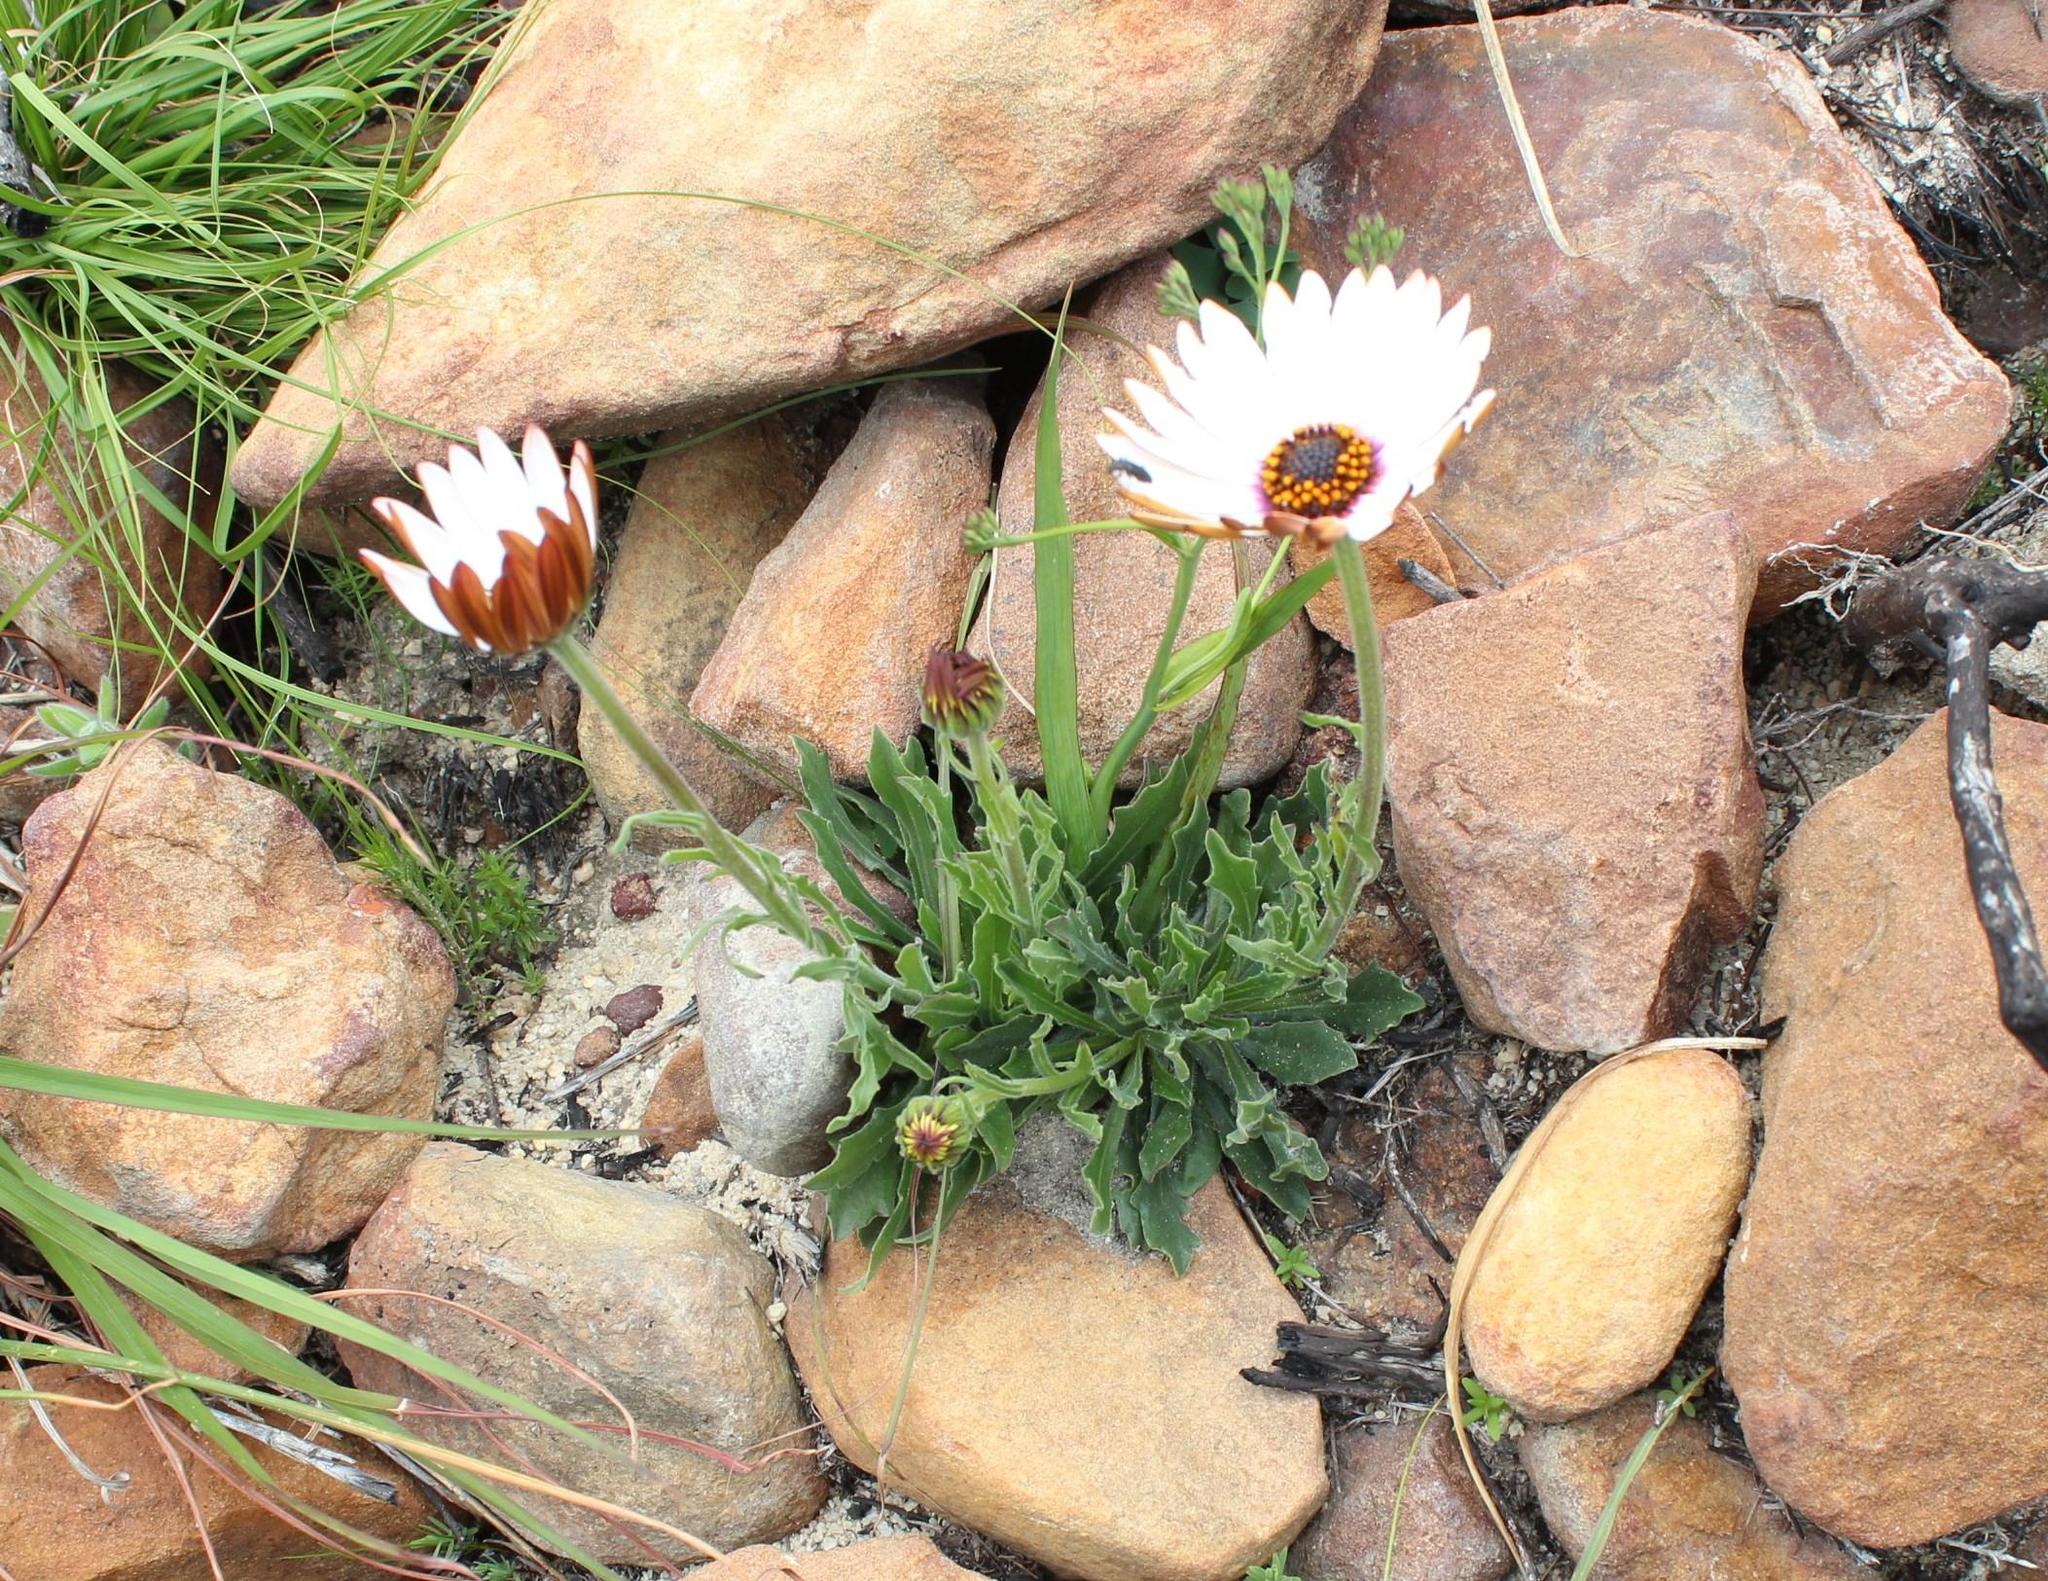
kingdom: Plantae
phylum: Tracheophyta
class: Magnoliopsida
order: Asterales
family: Asteraceae
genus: Dimorphotheca
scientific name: Dimorphotheca nudicaulis
